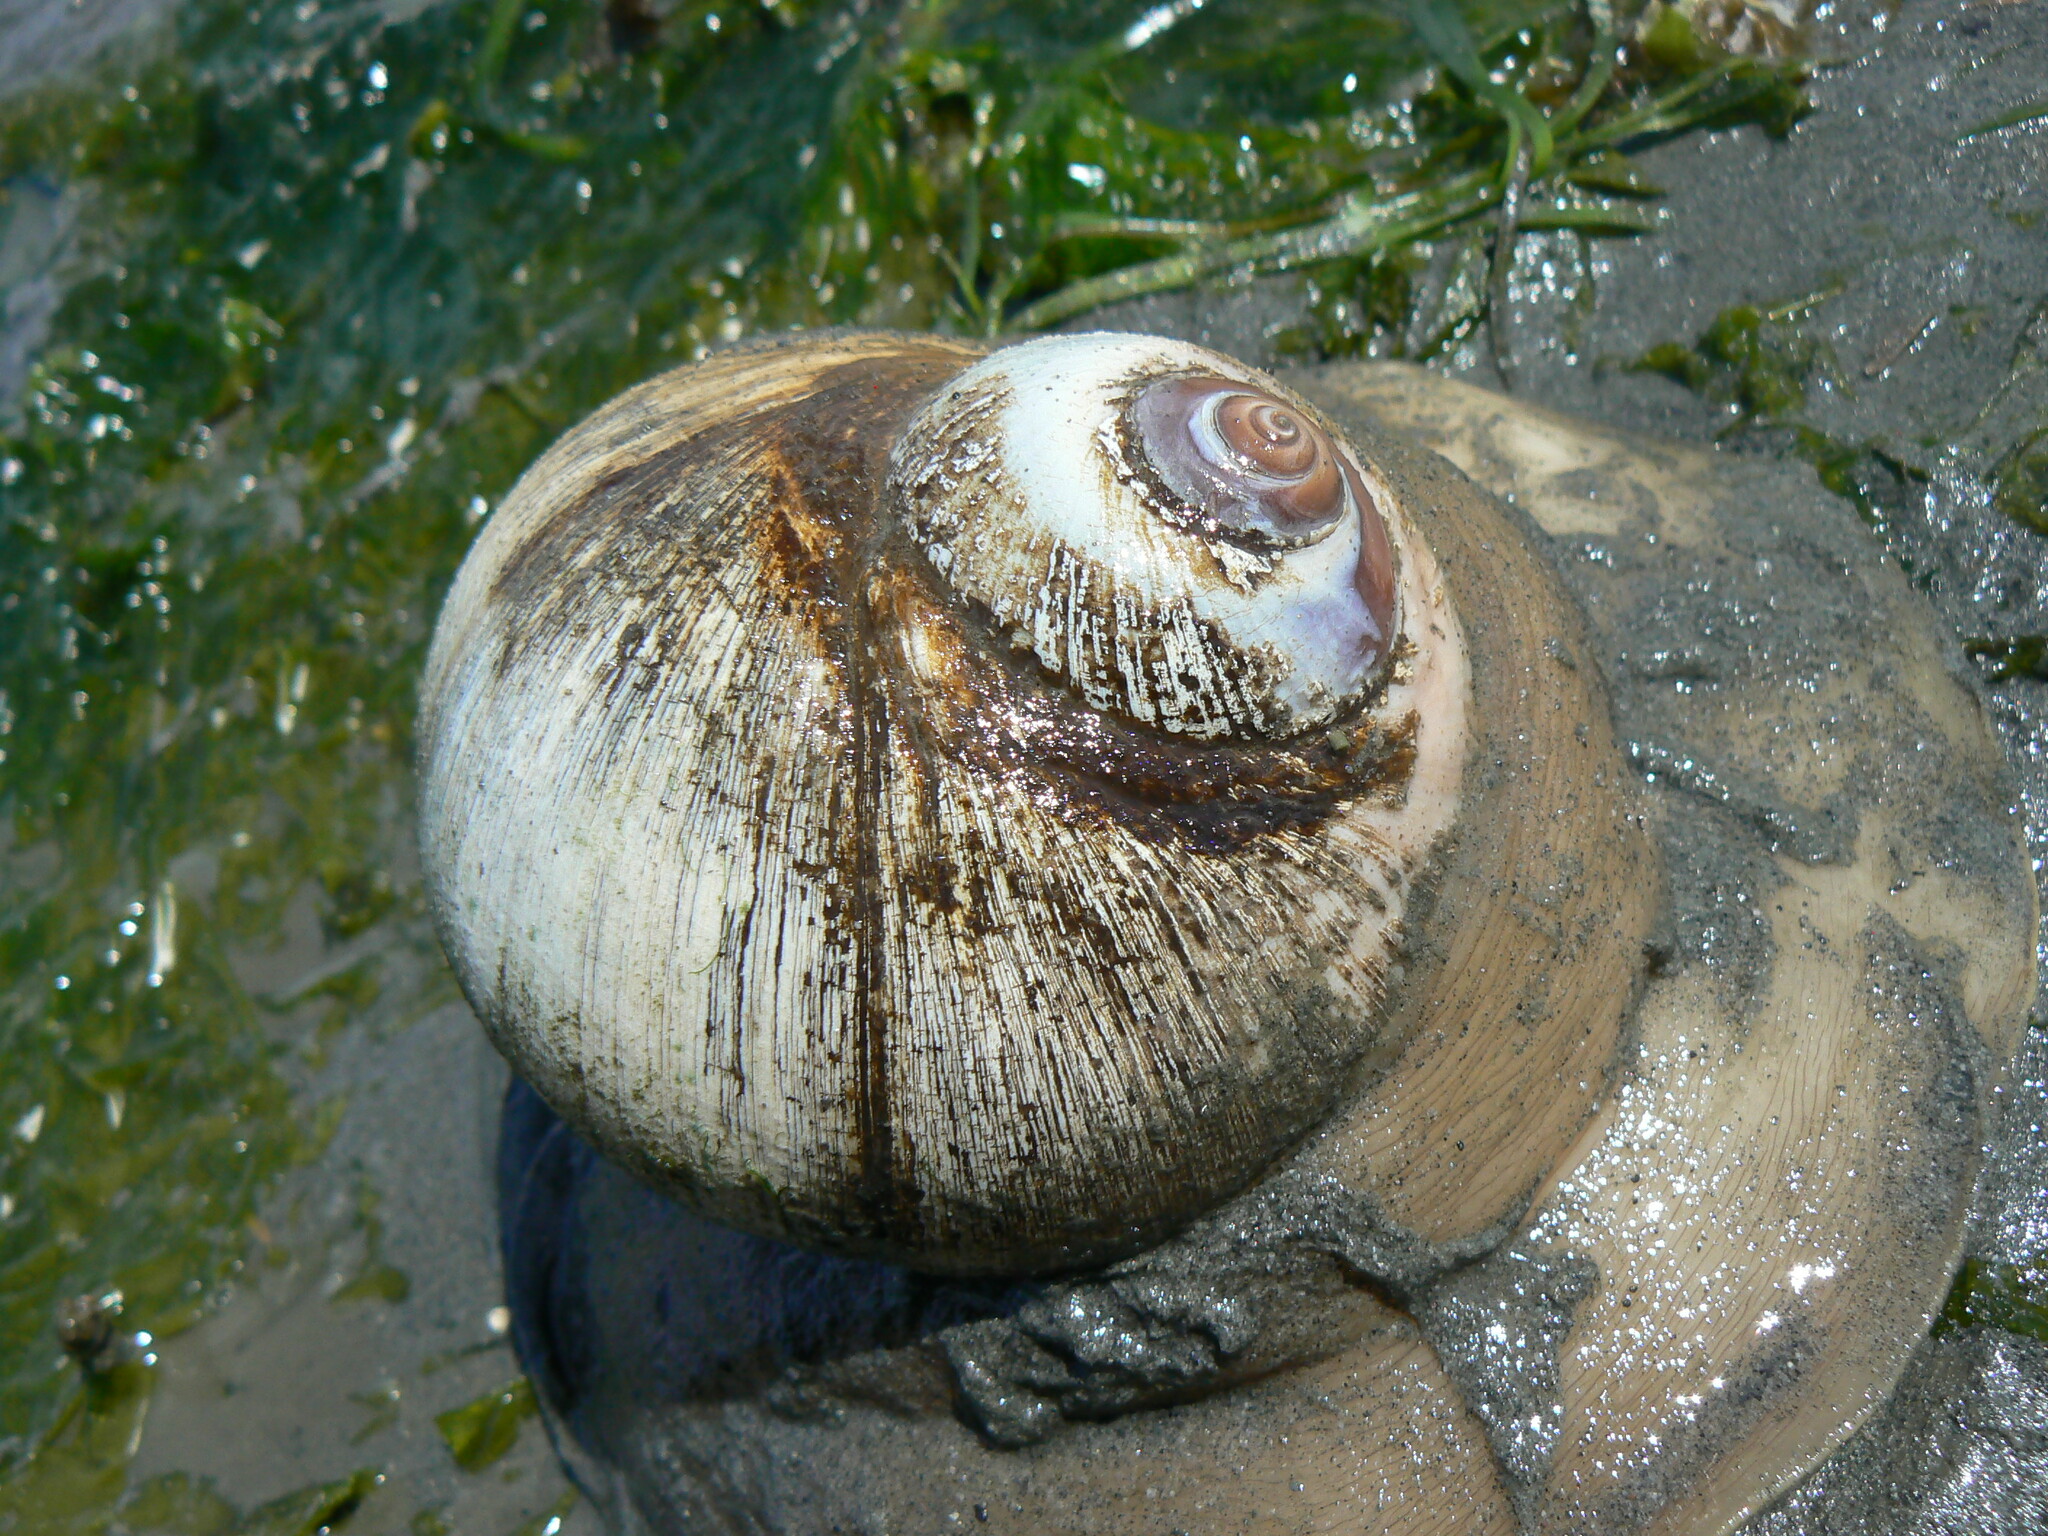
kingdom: Animalia
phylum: Mollusca
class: Gastropoda
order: Littorinimorpha
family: Naticidae
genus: Neverita
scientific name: Neverita lewisii
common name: Lewis' moonsnail
